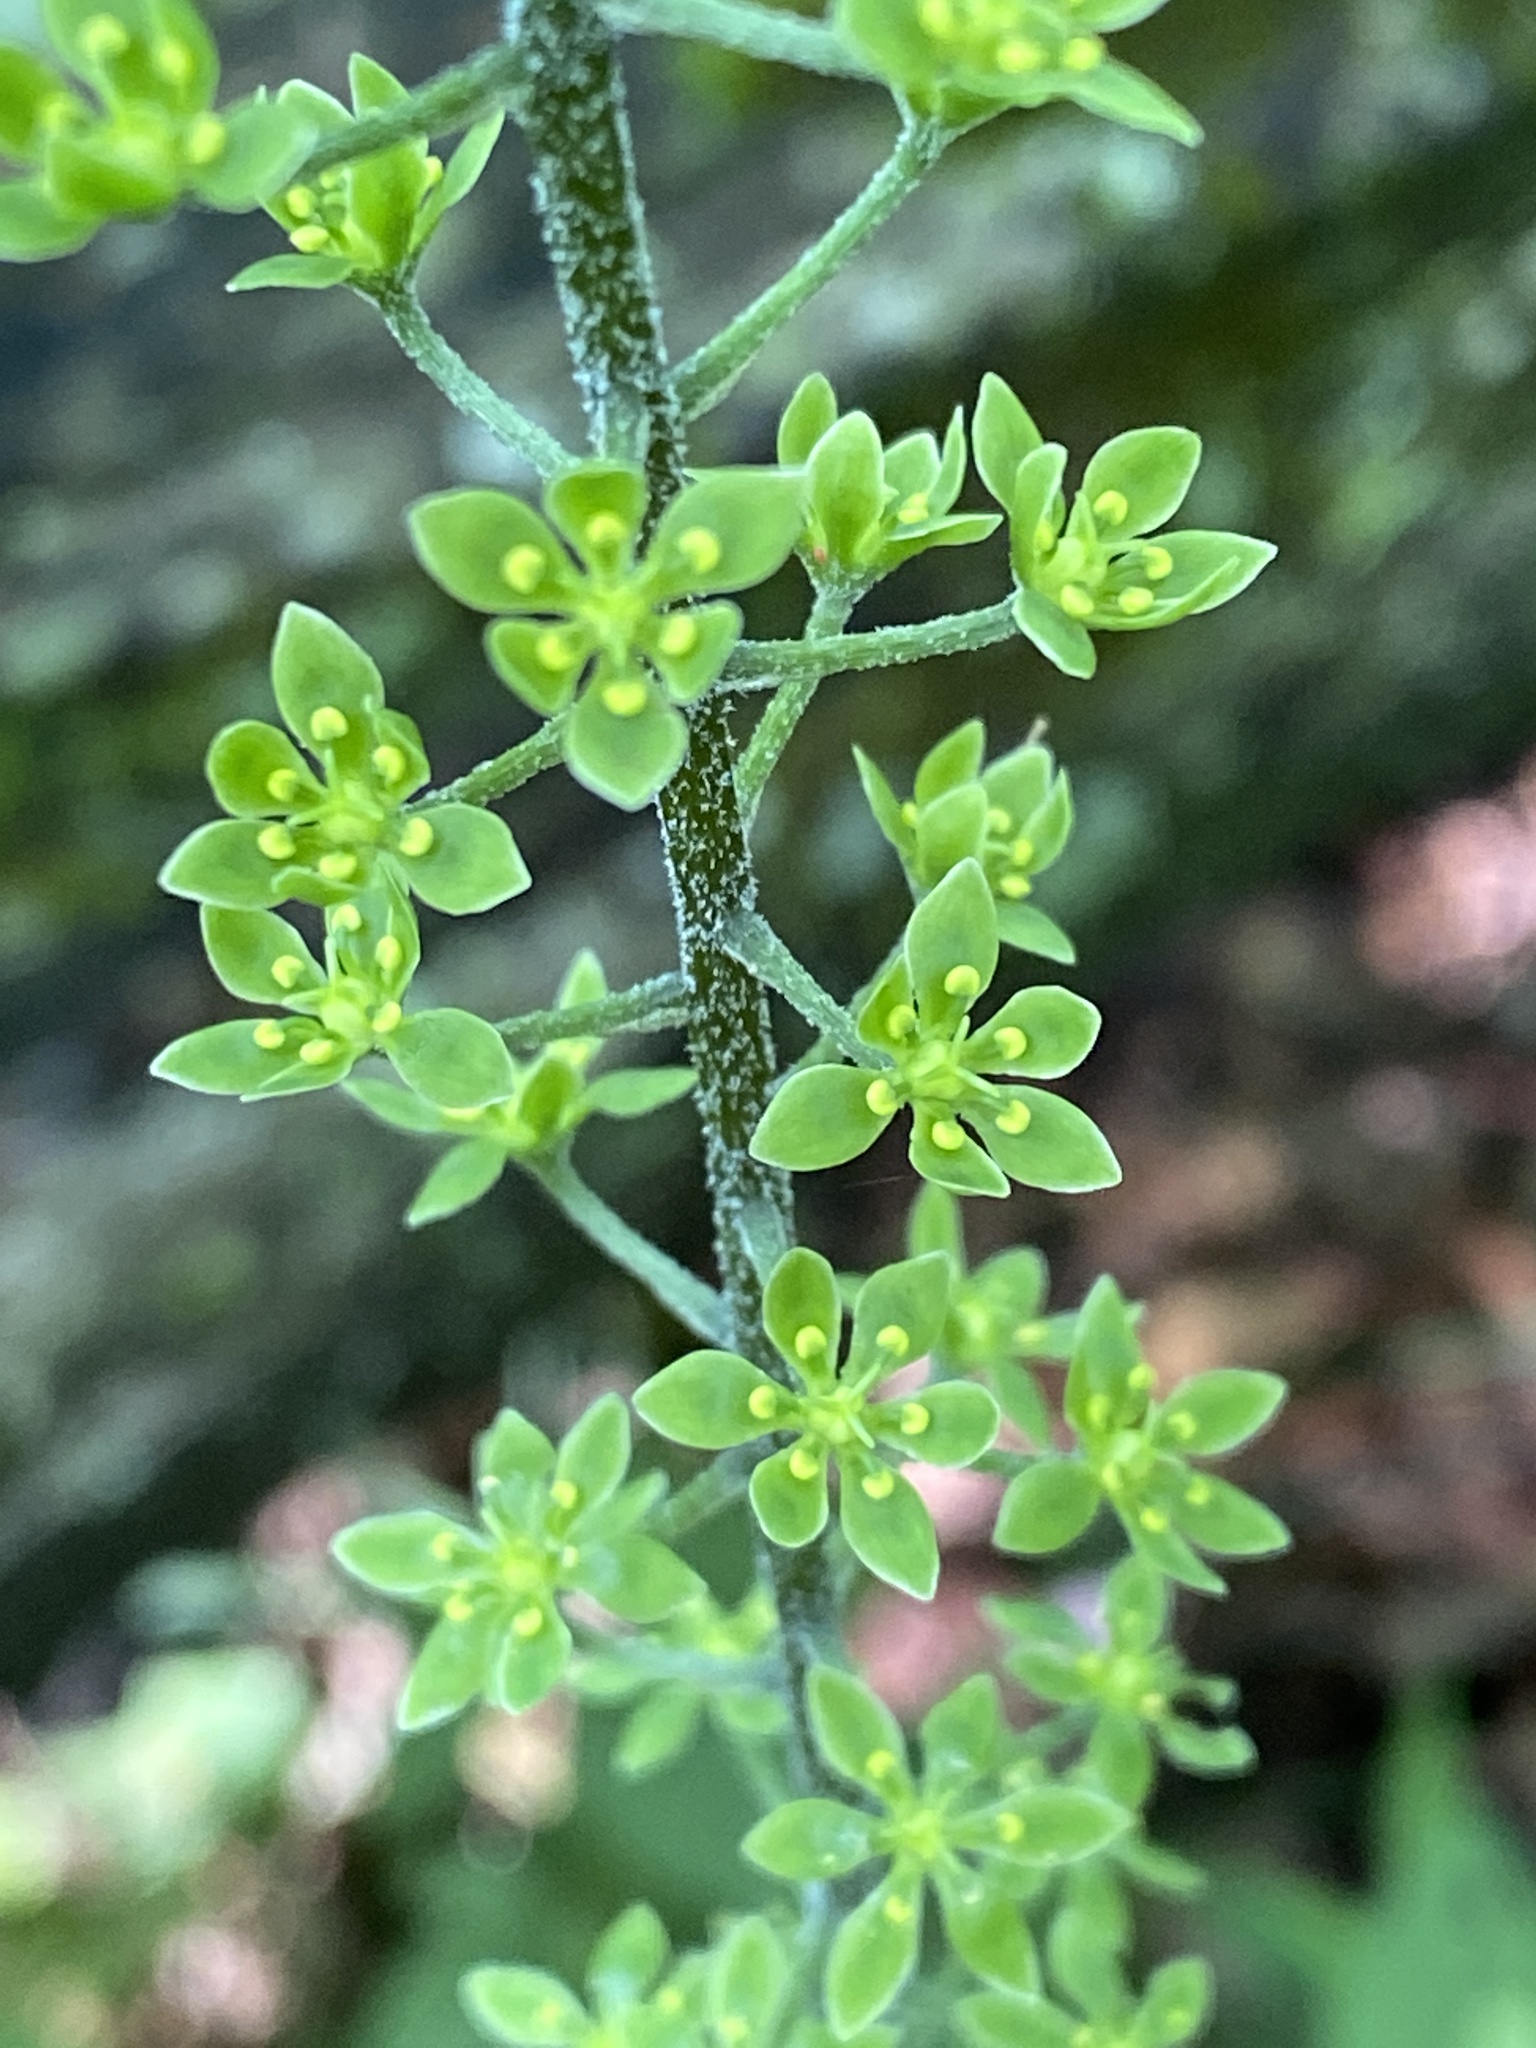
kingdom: Plantae
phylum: Tracheophyta
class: Liliopsida
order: Liliales
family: Melanthiaceae
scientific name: Melanthiaceae
